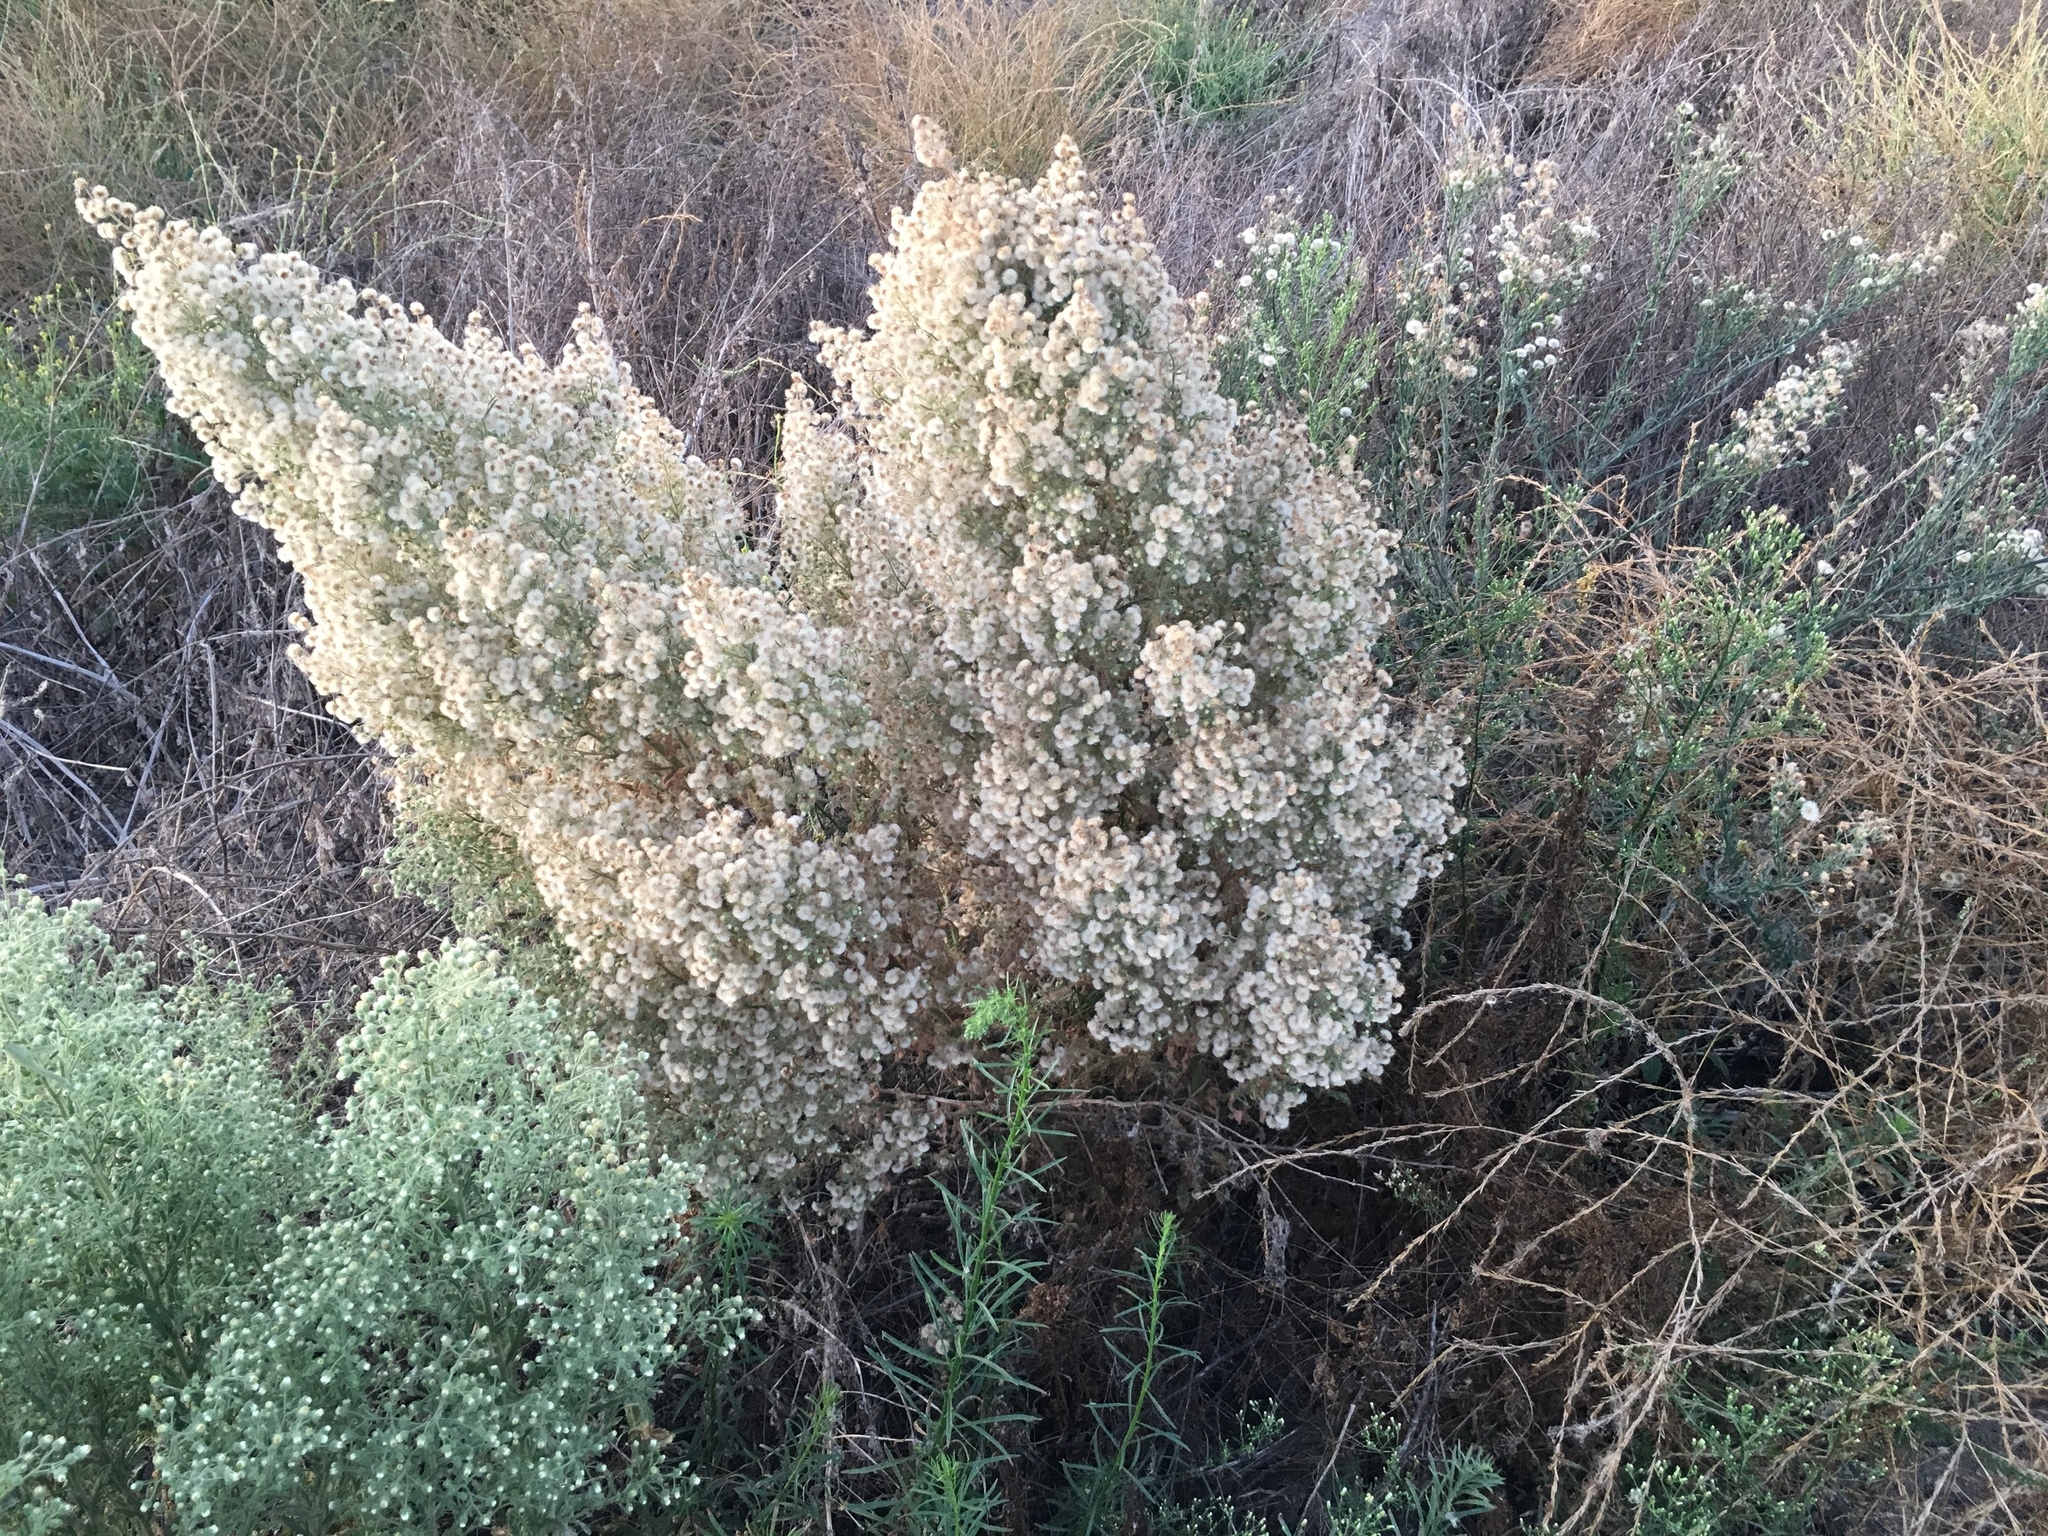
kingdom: Plantae
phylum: Tracheophyta
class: Magnoliopsida
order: Asterales
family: Asteraceae
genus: Laennecia
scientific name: Laennecia coulteri
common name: Coulter's woolwort
